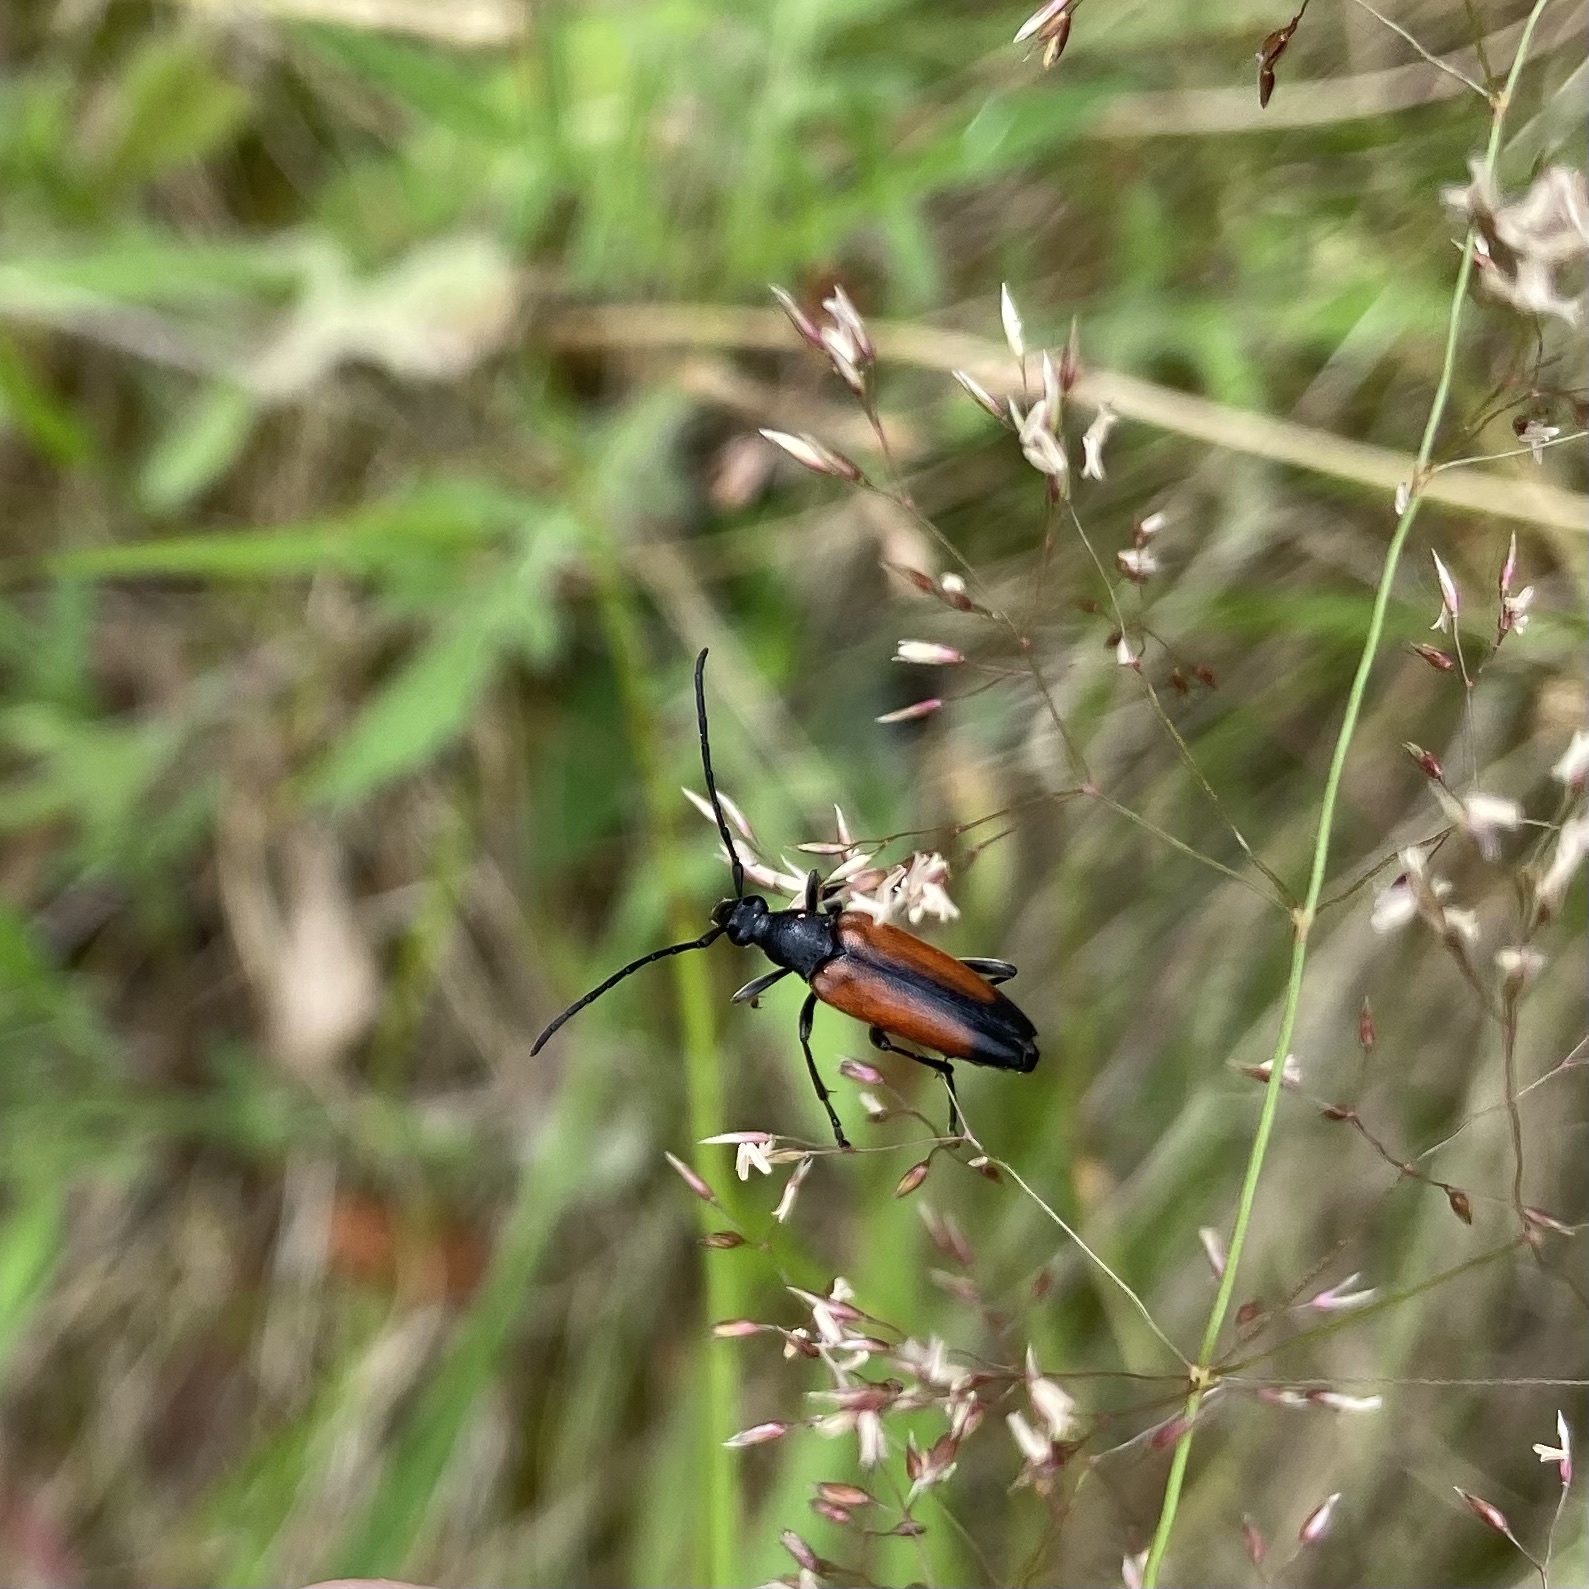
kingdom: Animalia
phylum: Arthropoda
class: Insecta
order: Coleoptera
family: Cerambycidae
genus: Stenurella
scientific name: Stenurella melanura
